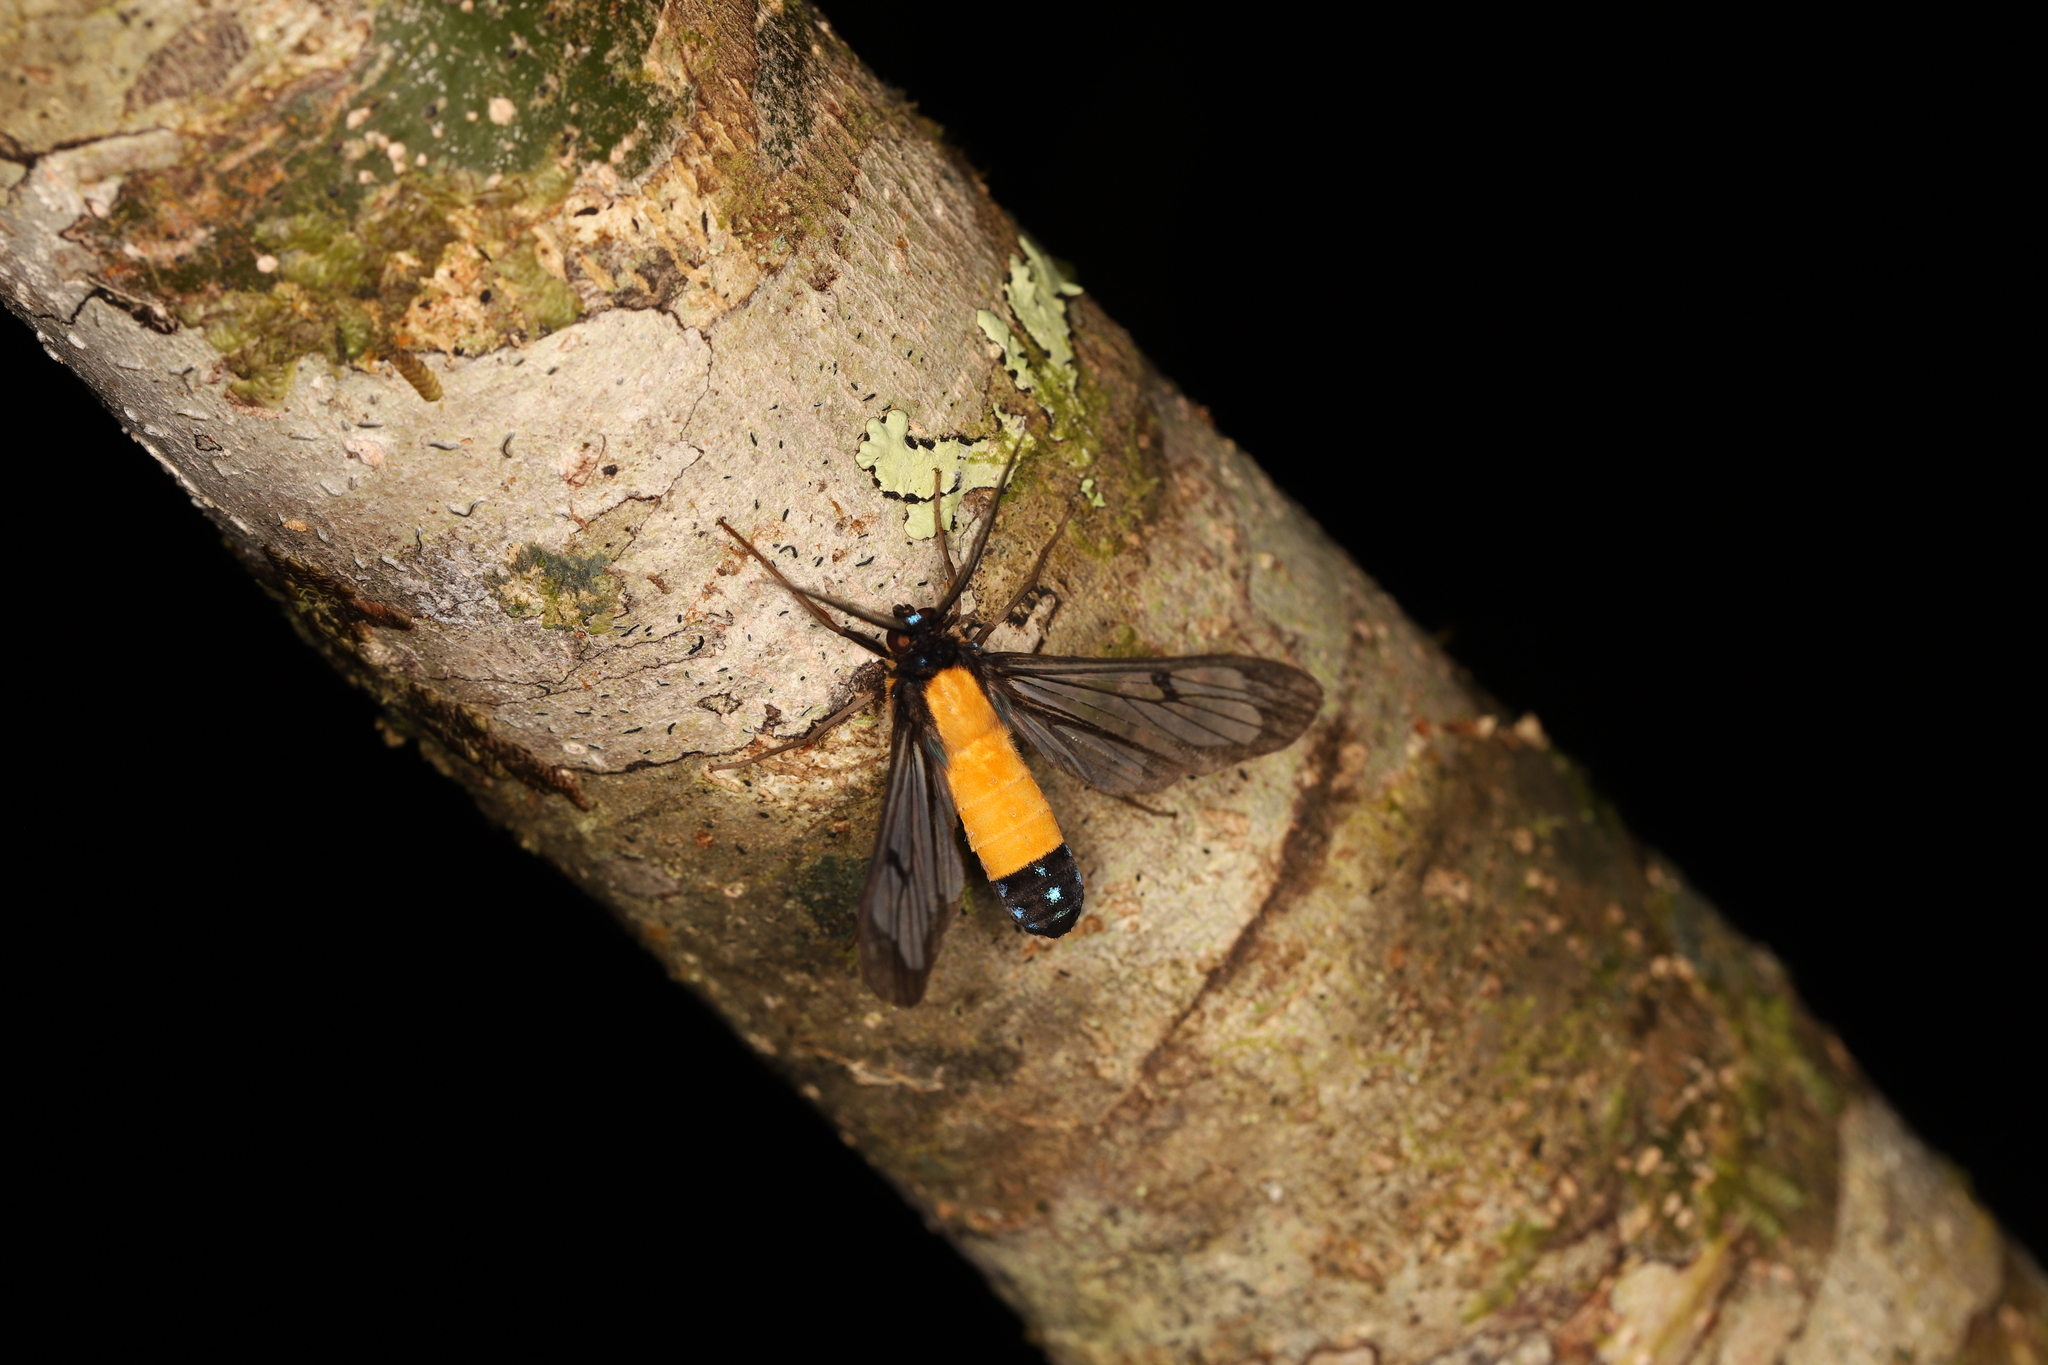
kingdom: Animalia
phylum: Arthropoda
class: Insecta
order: Lepidoptera
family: Erebidae
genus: Cosmosoma
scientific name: Cosmosoma intensa
